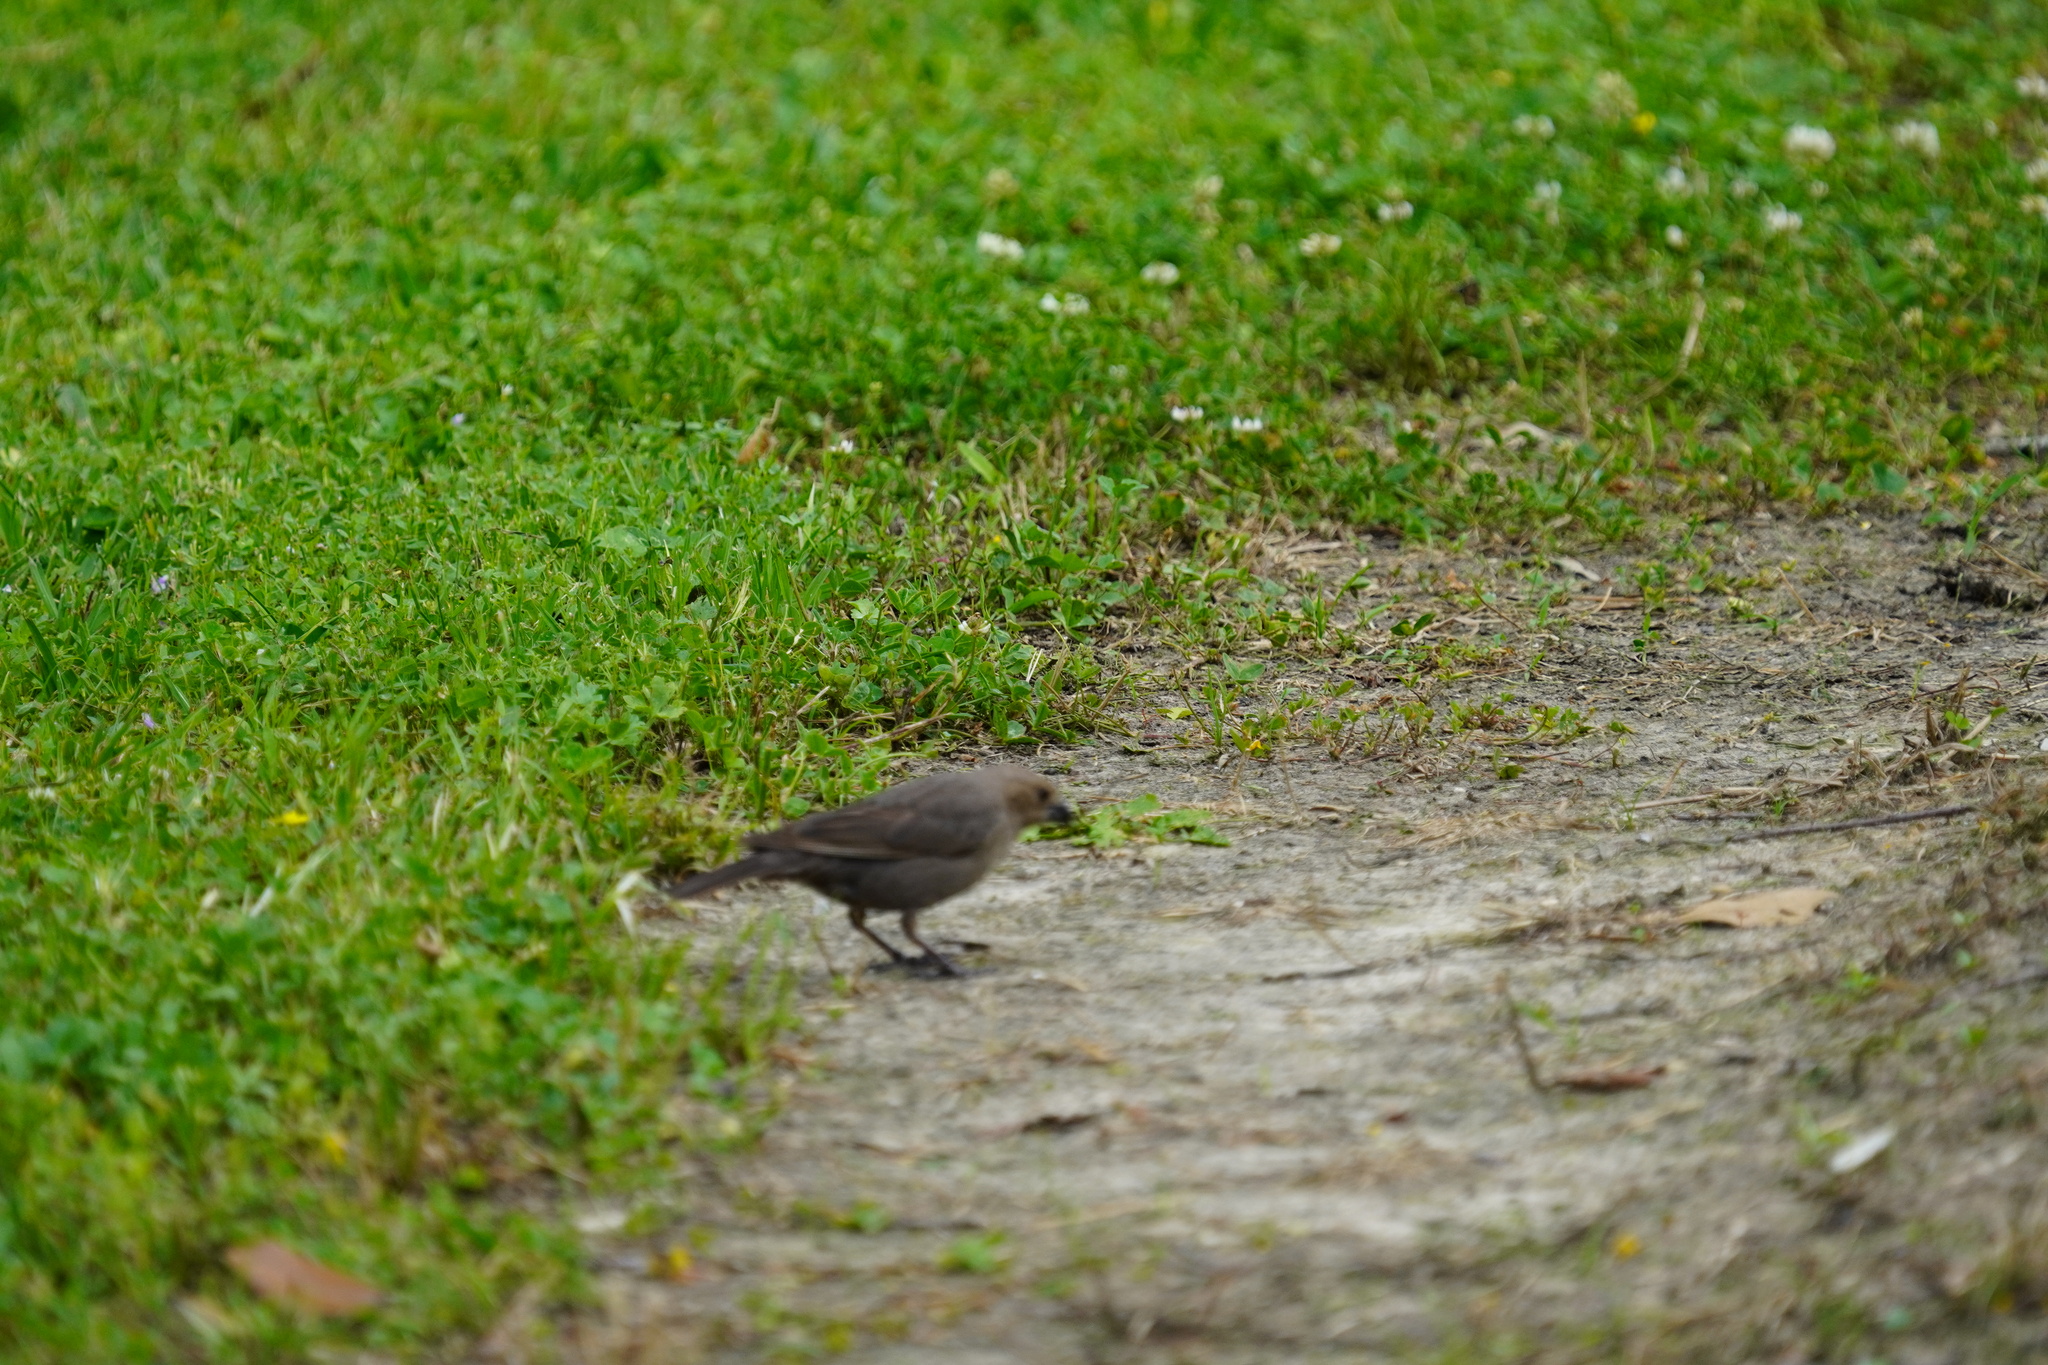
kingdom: Animalia
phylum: Chordata
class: Aves
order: Passeriformes
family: Icteridae
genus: Molothrus
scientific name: Molothrus ater
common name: Brown-headed cowbird
